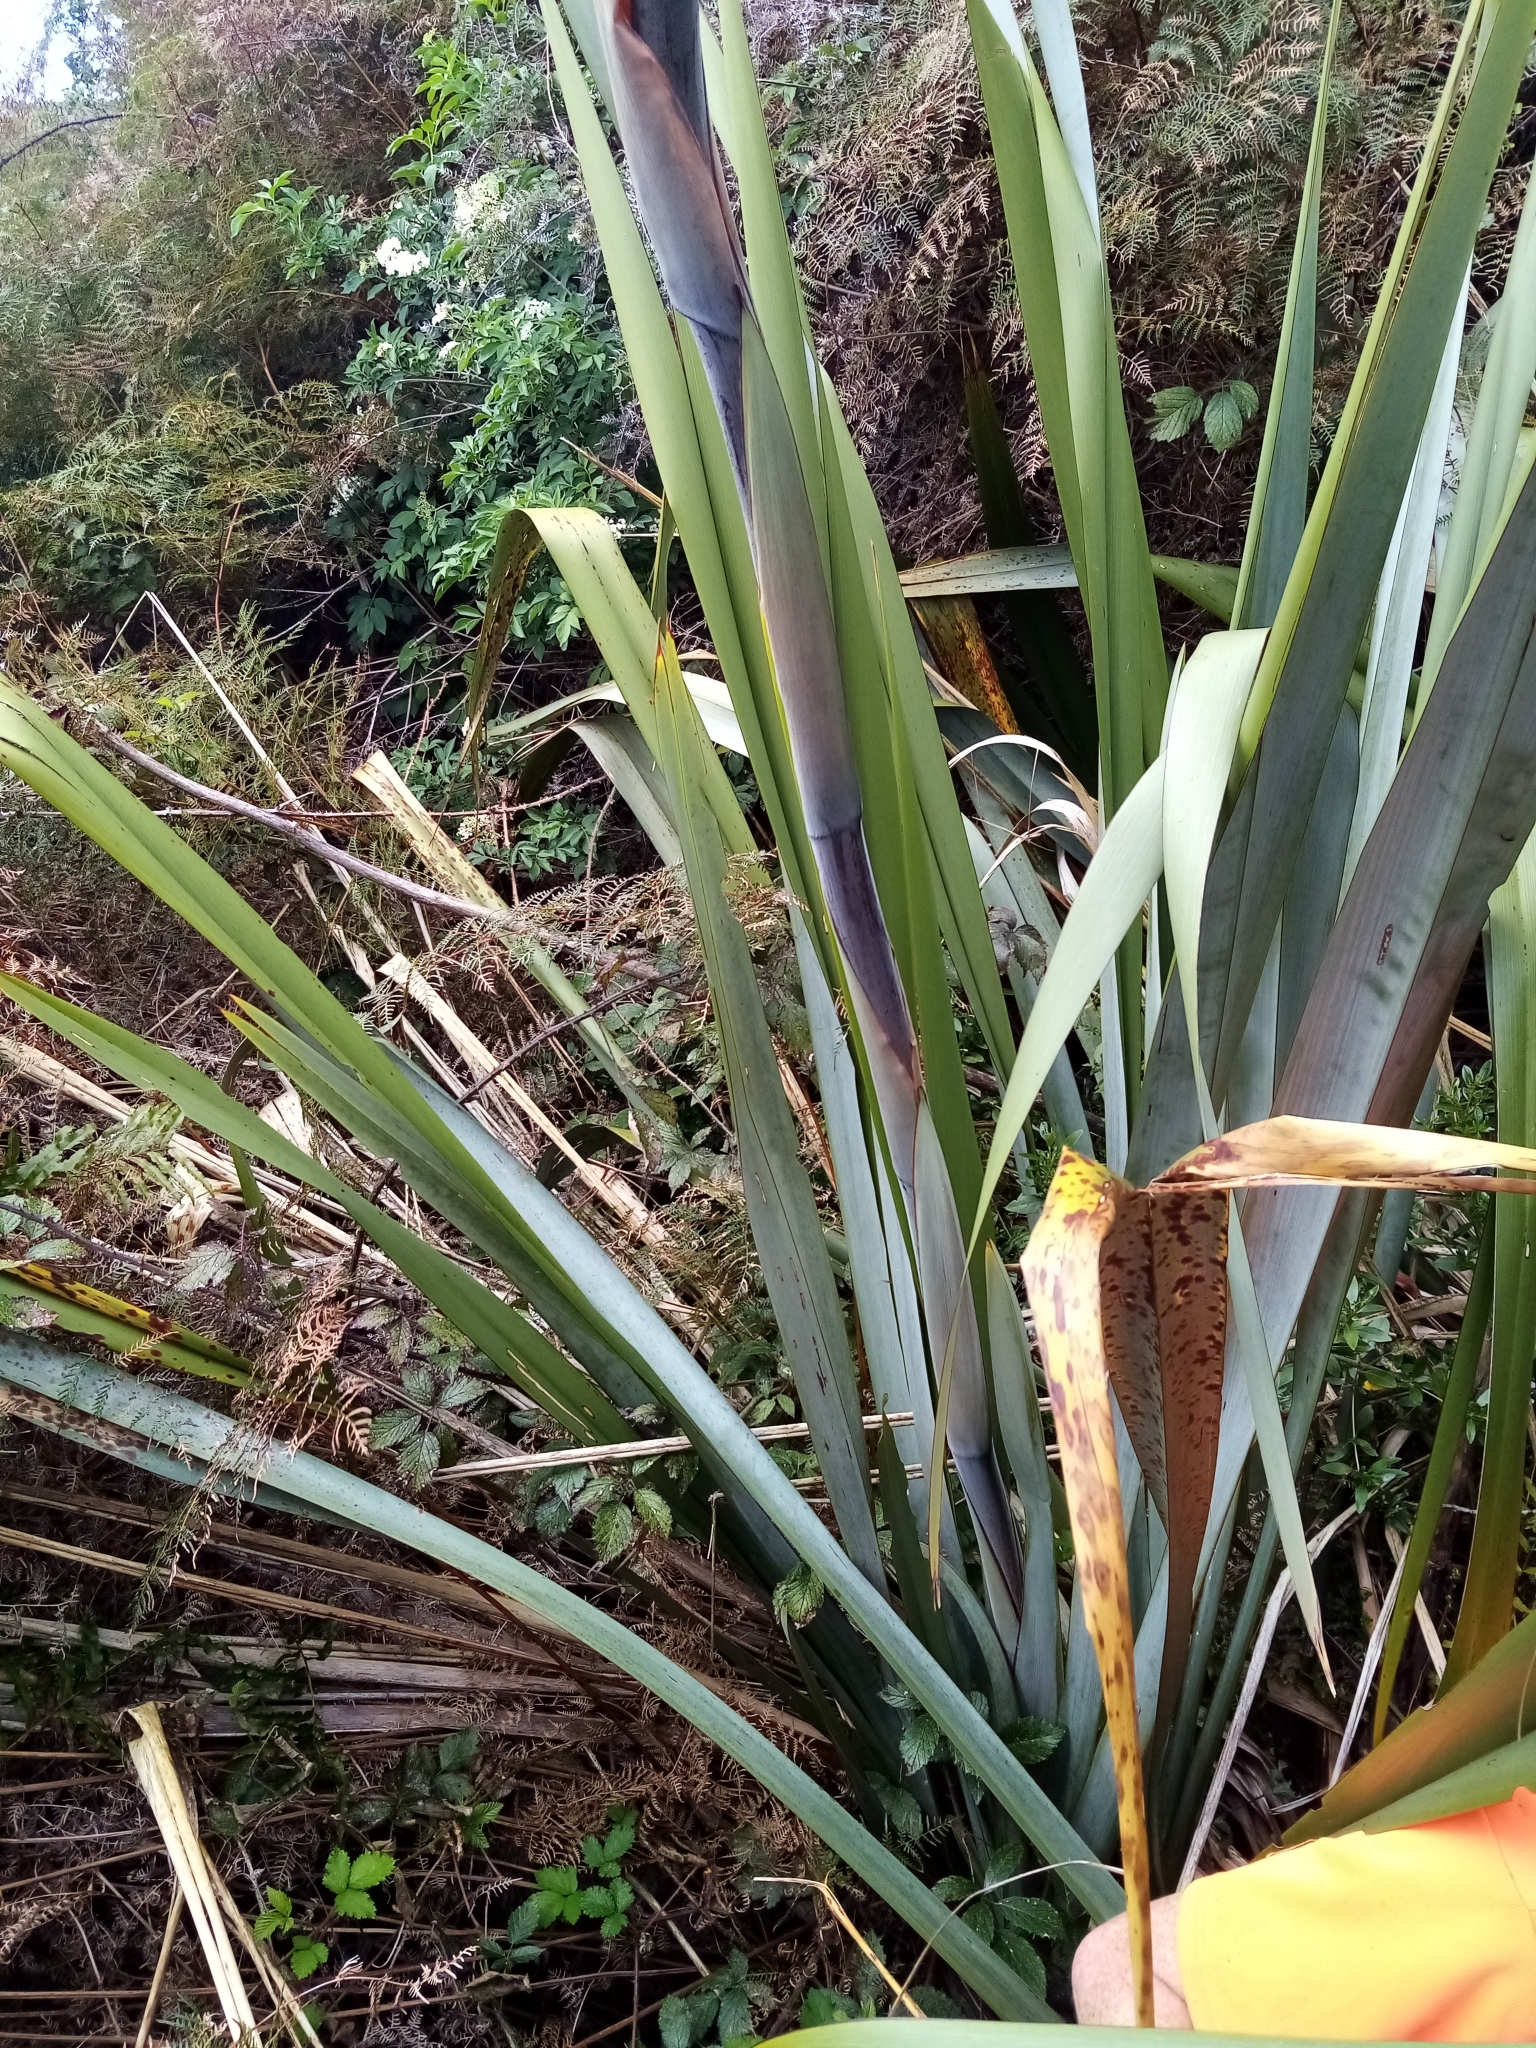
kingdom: Plantae
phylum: Tracheophyta
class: Liliopsida
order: Asparagales
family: Asphodelaceae
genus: Phormium
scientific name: Phormium tenax
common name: New zealand flax
